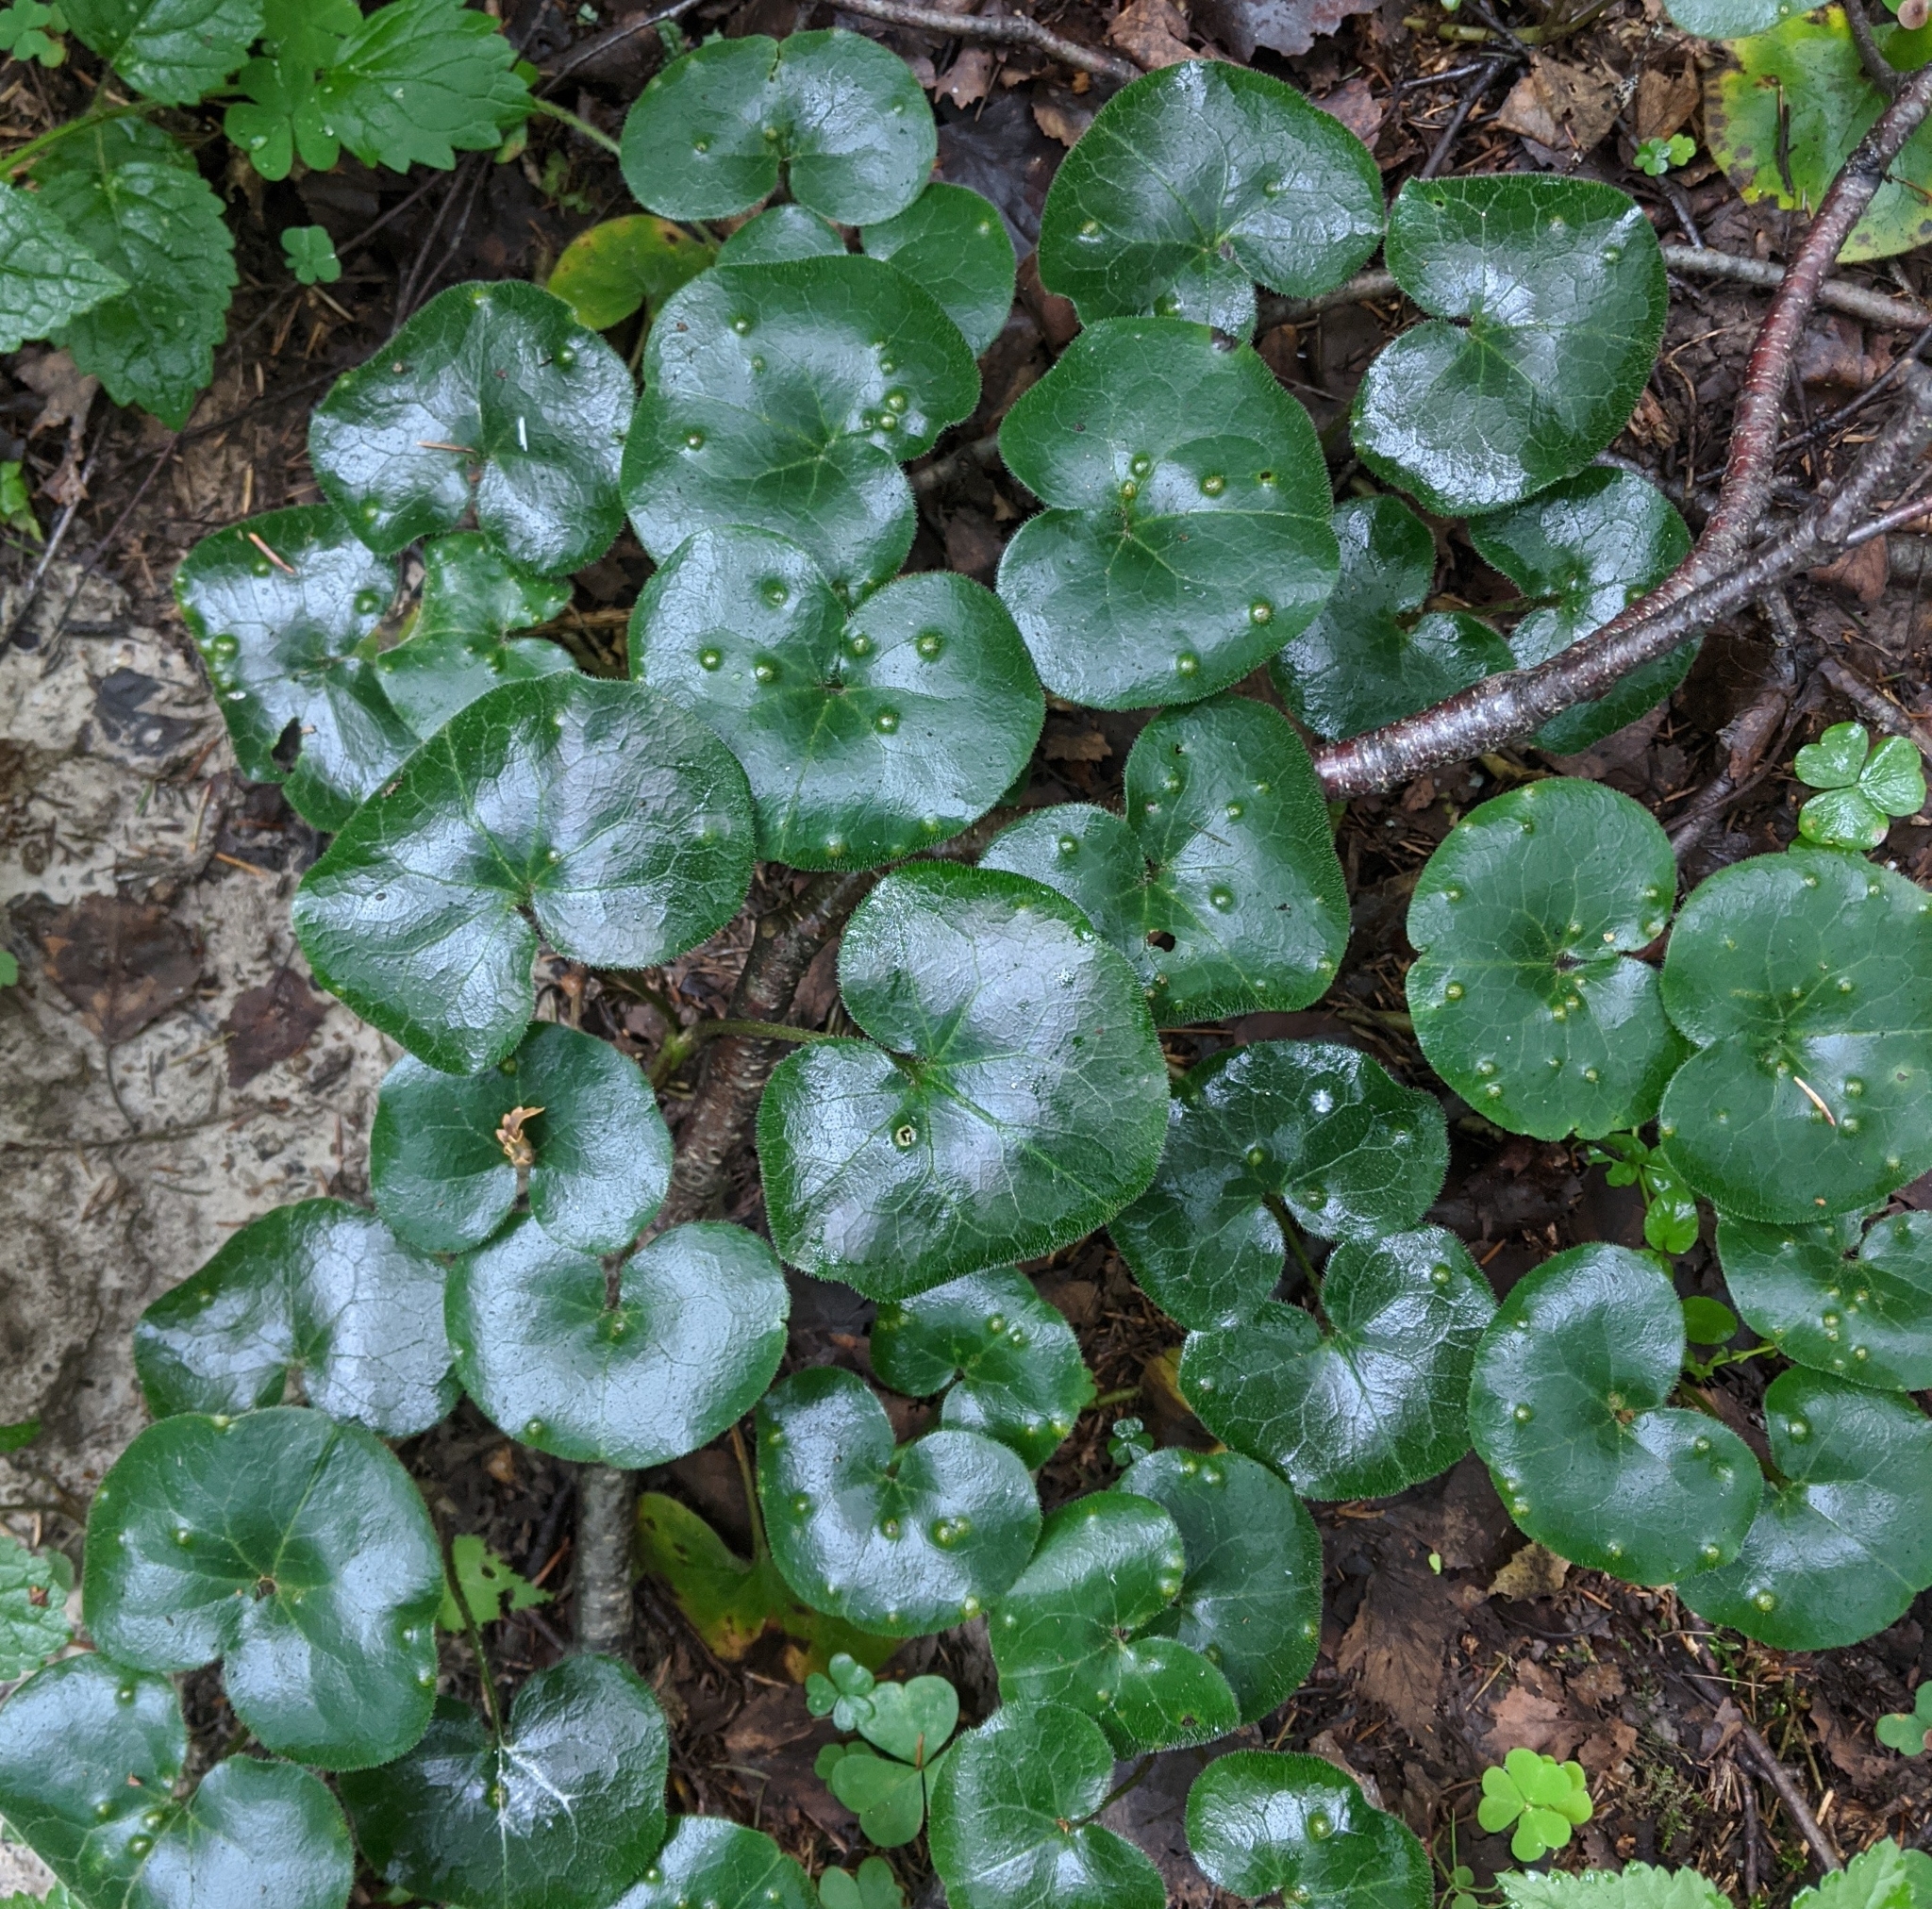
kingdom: Plantae
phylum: Tracheophyta
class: Magnoliopsida
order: Piperales
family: Aristolochiaceae
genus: Asarum
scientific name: Asarum europaeum
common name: Asarabacca
